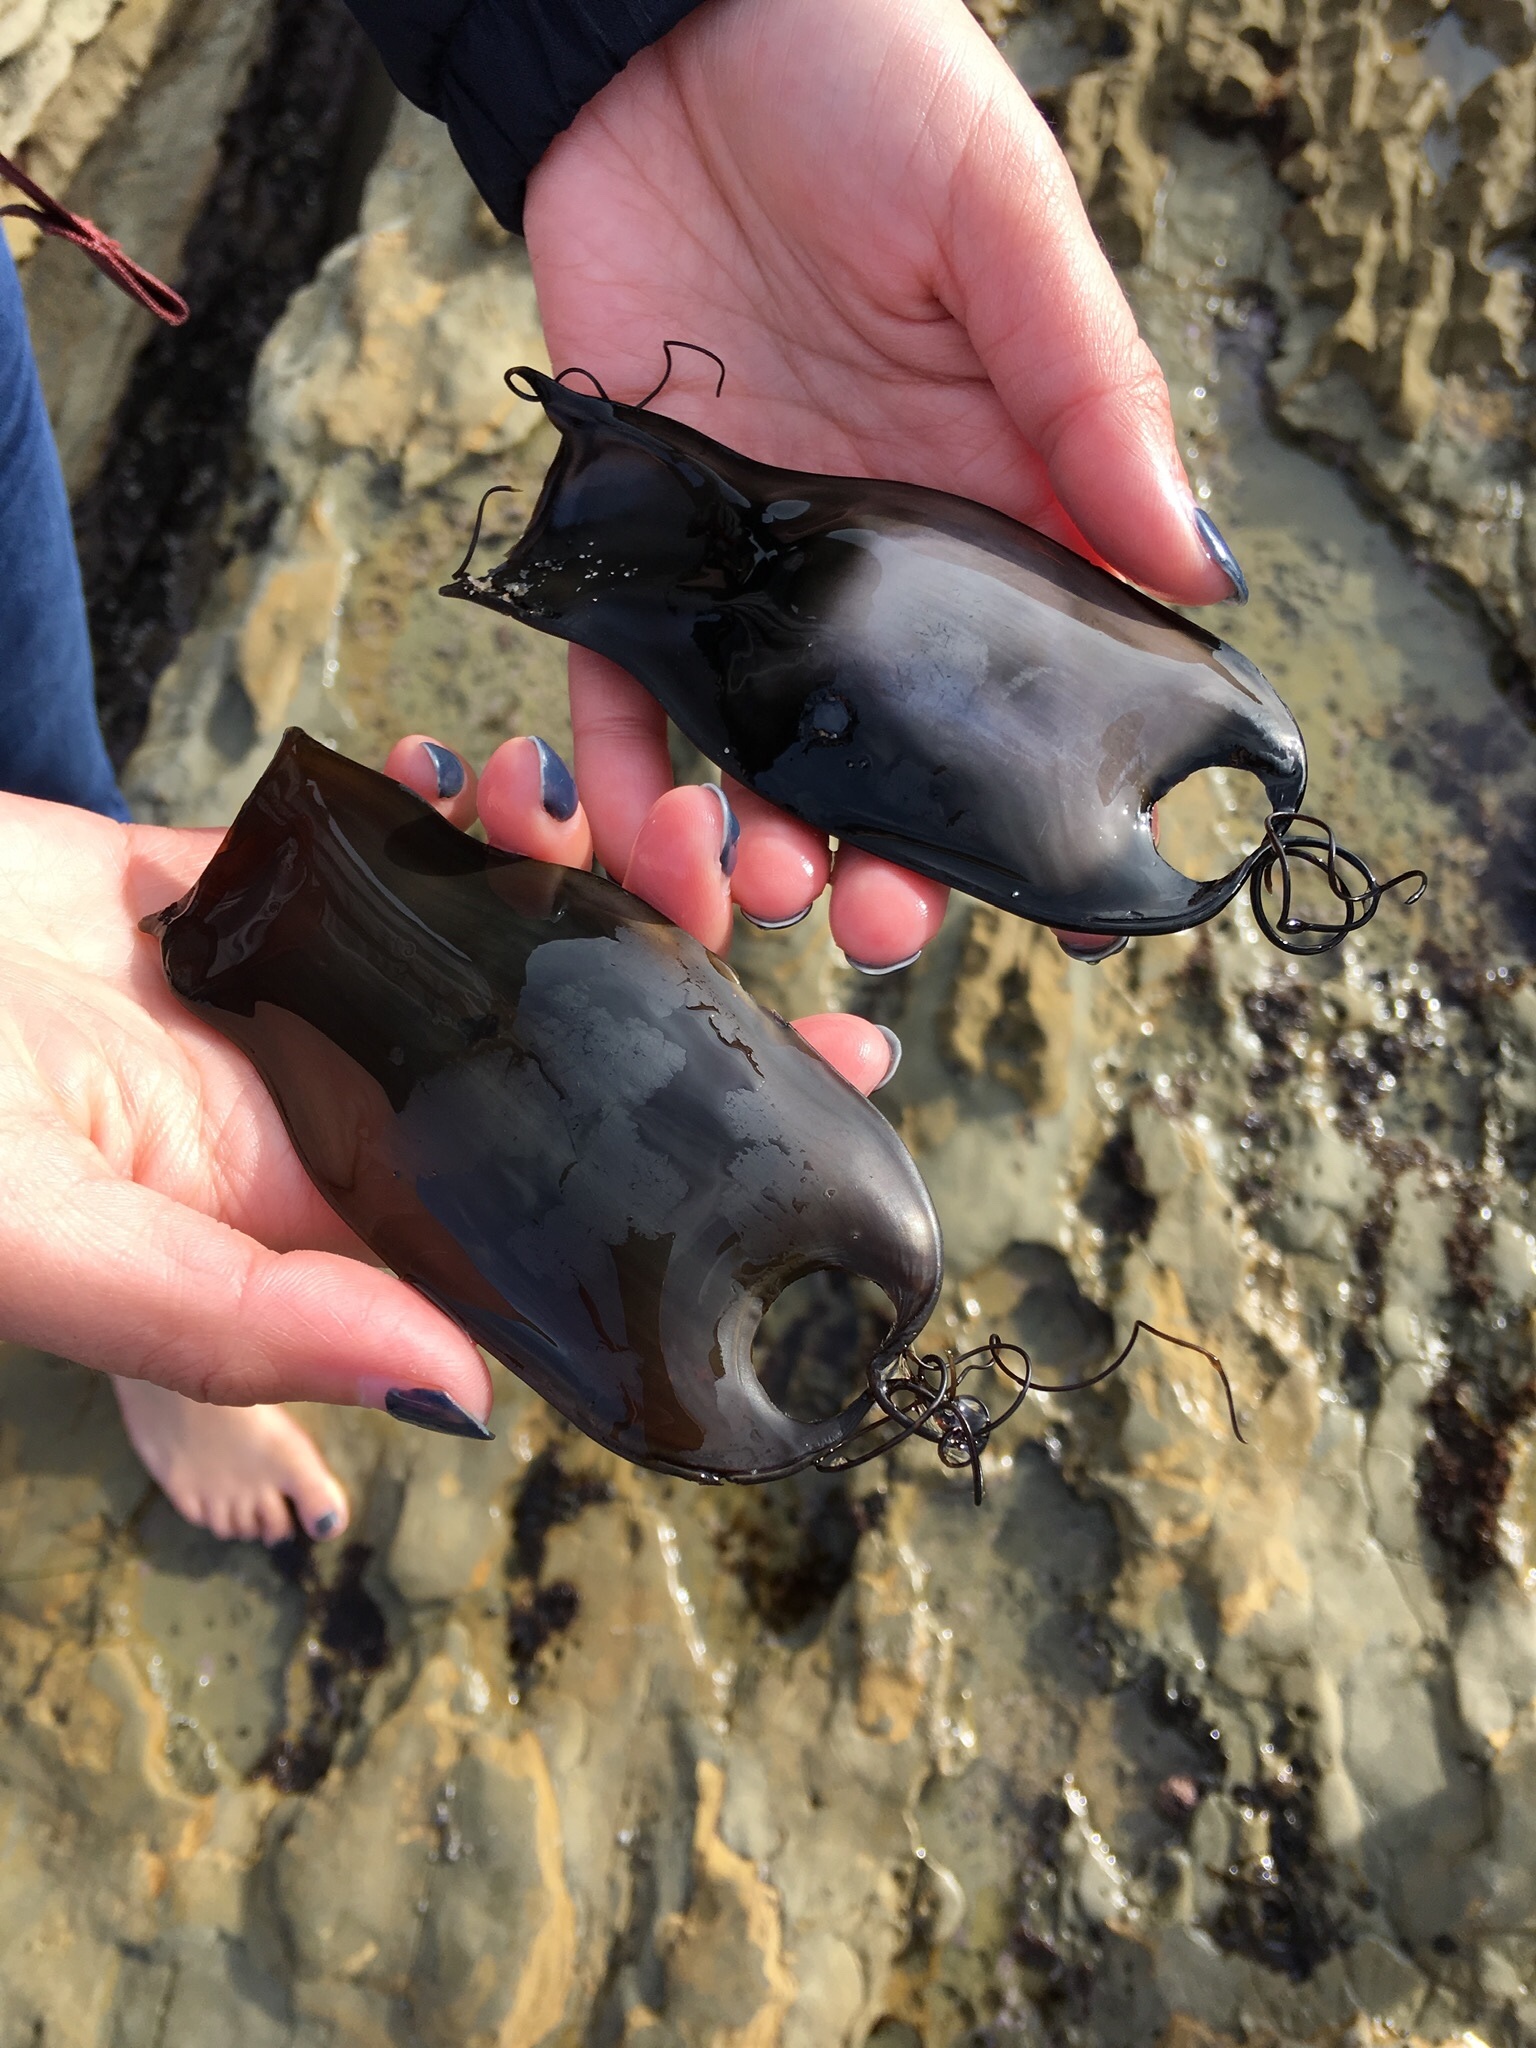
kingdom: Animalia
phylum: Chordata
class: Elasmobranchii
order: Carcharhiniformes
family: Scyliorhinidae
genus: Cephaloscyllium
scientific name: Cephaloscyllium ventriosum
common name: Swell shark
